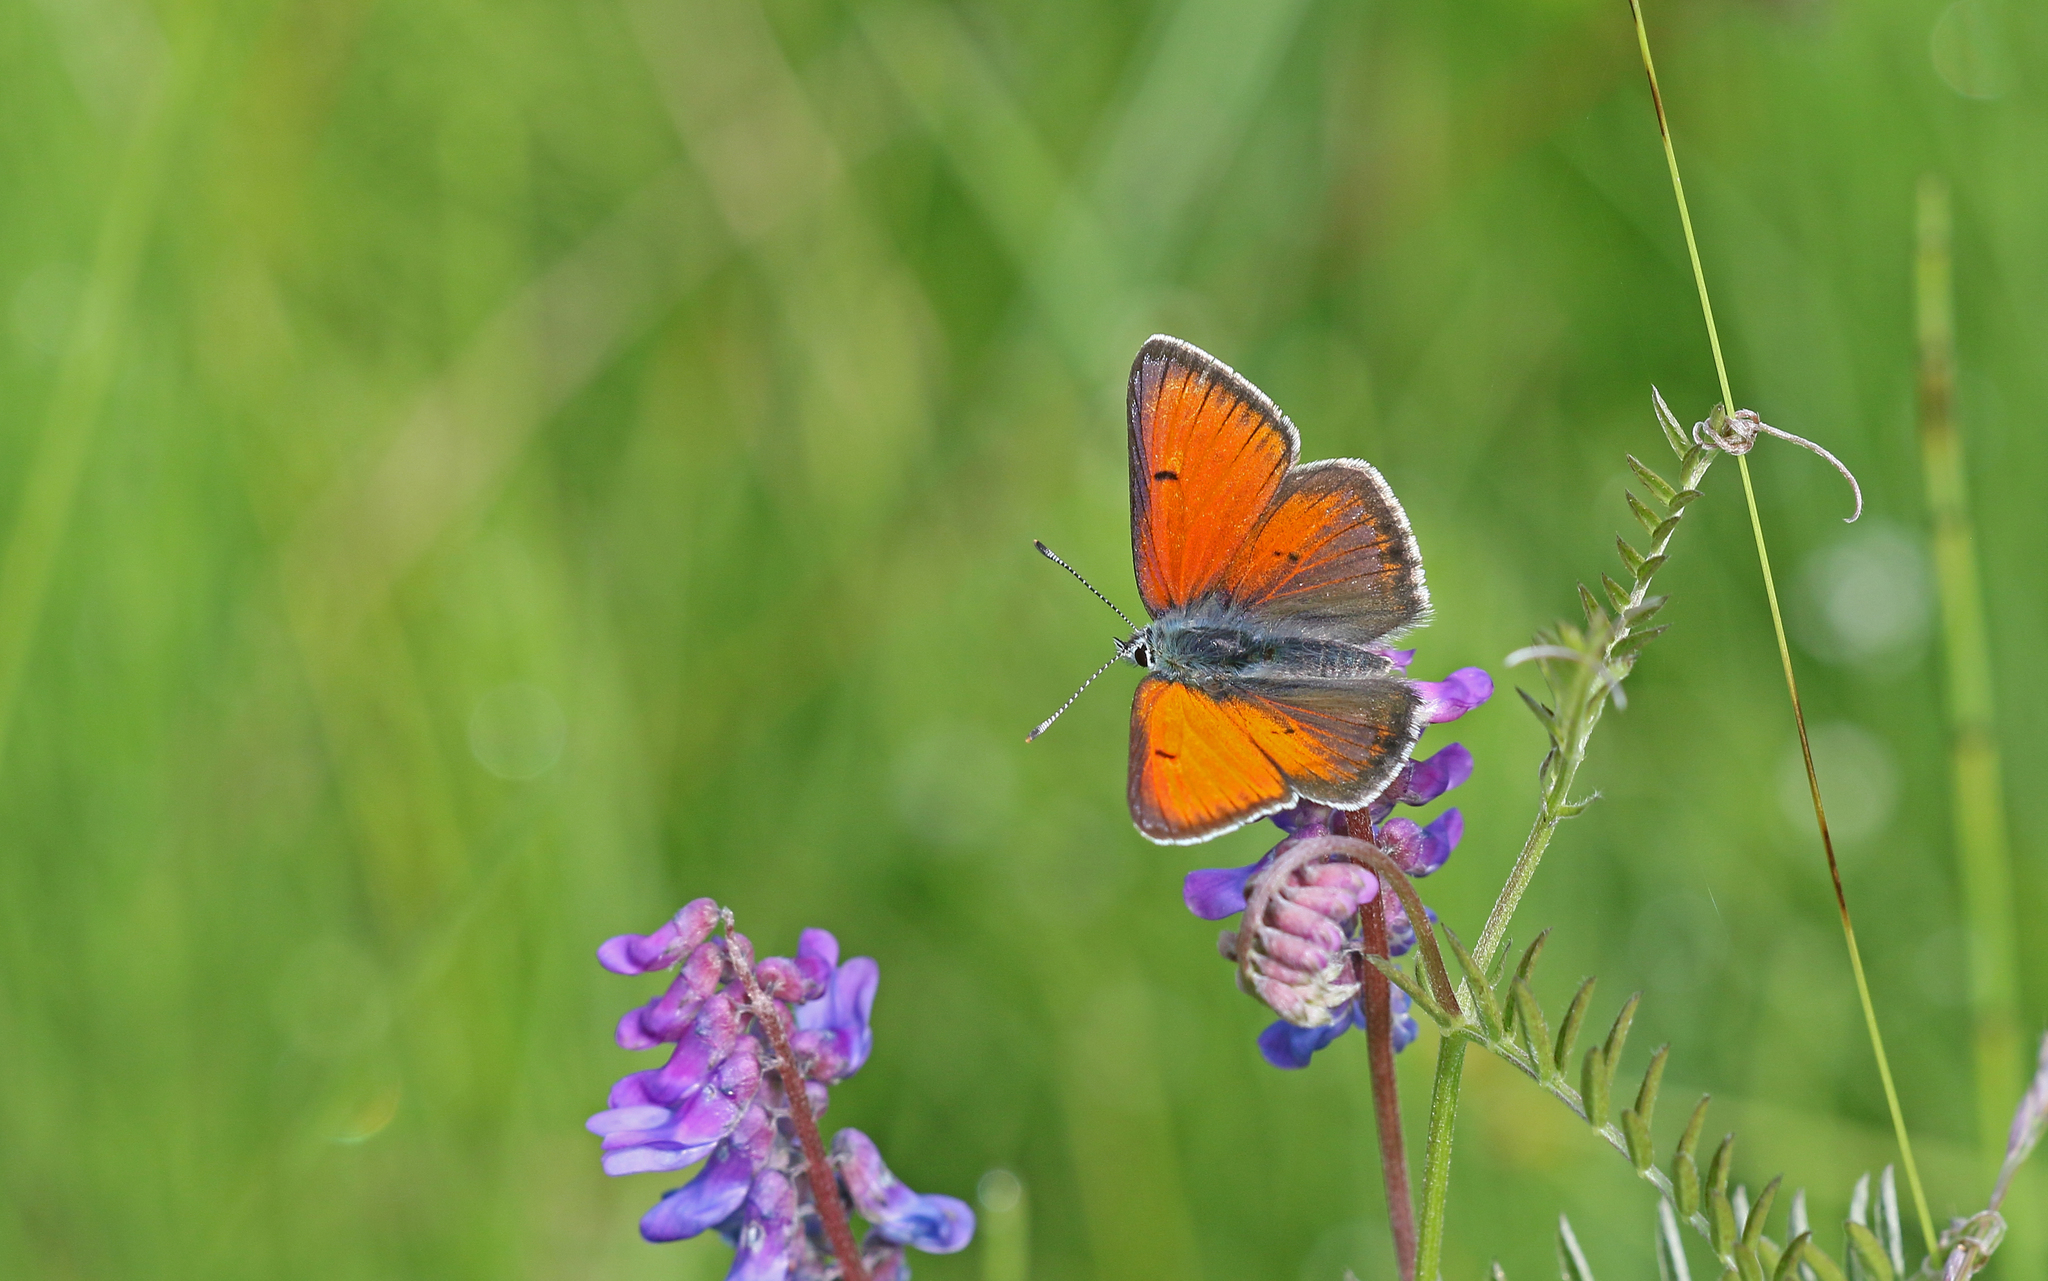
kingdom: Animalia
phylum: Arthropoda
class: Insecta
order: Lepidoptera
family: Lycaenidae
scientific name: Lycaenidae
